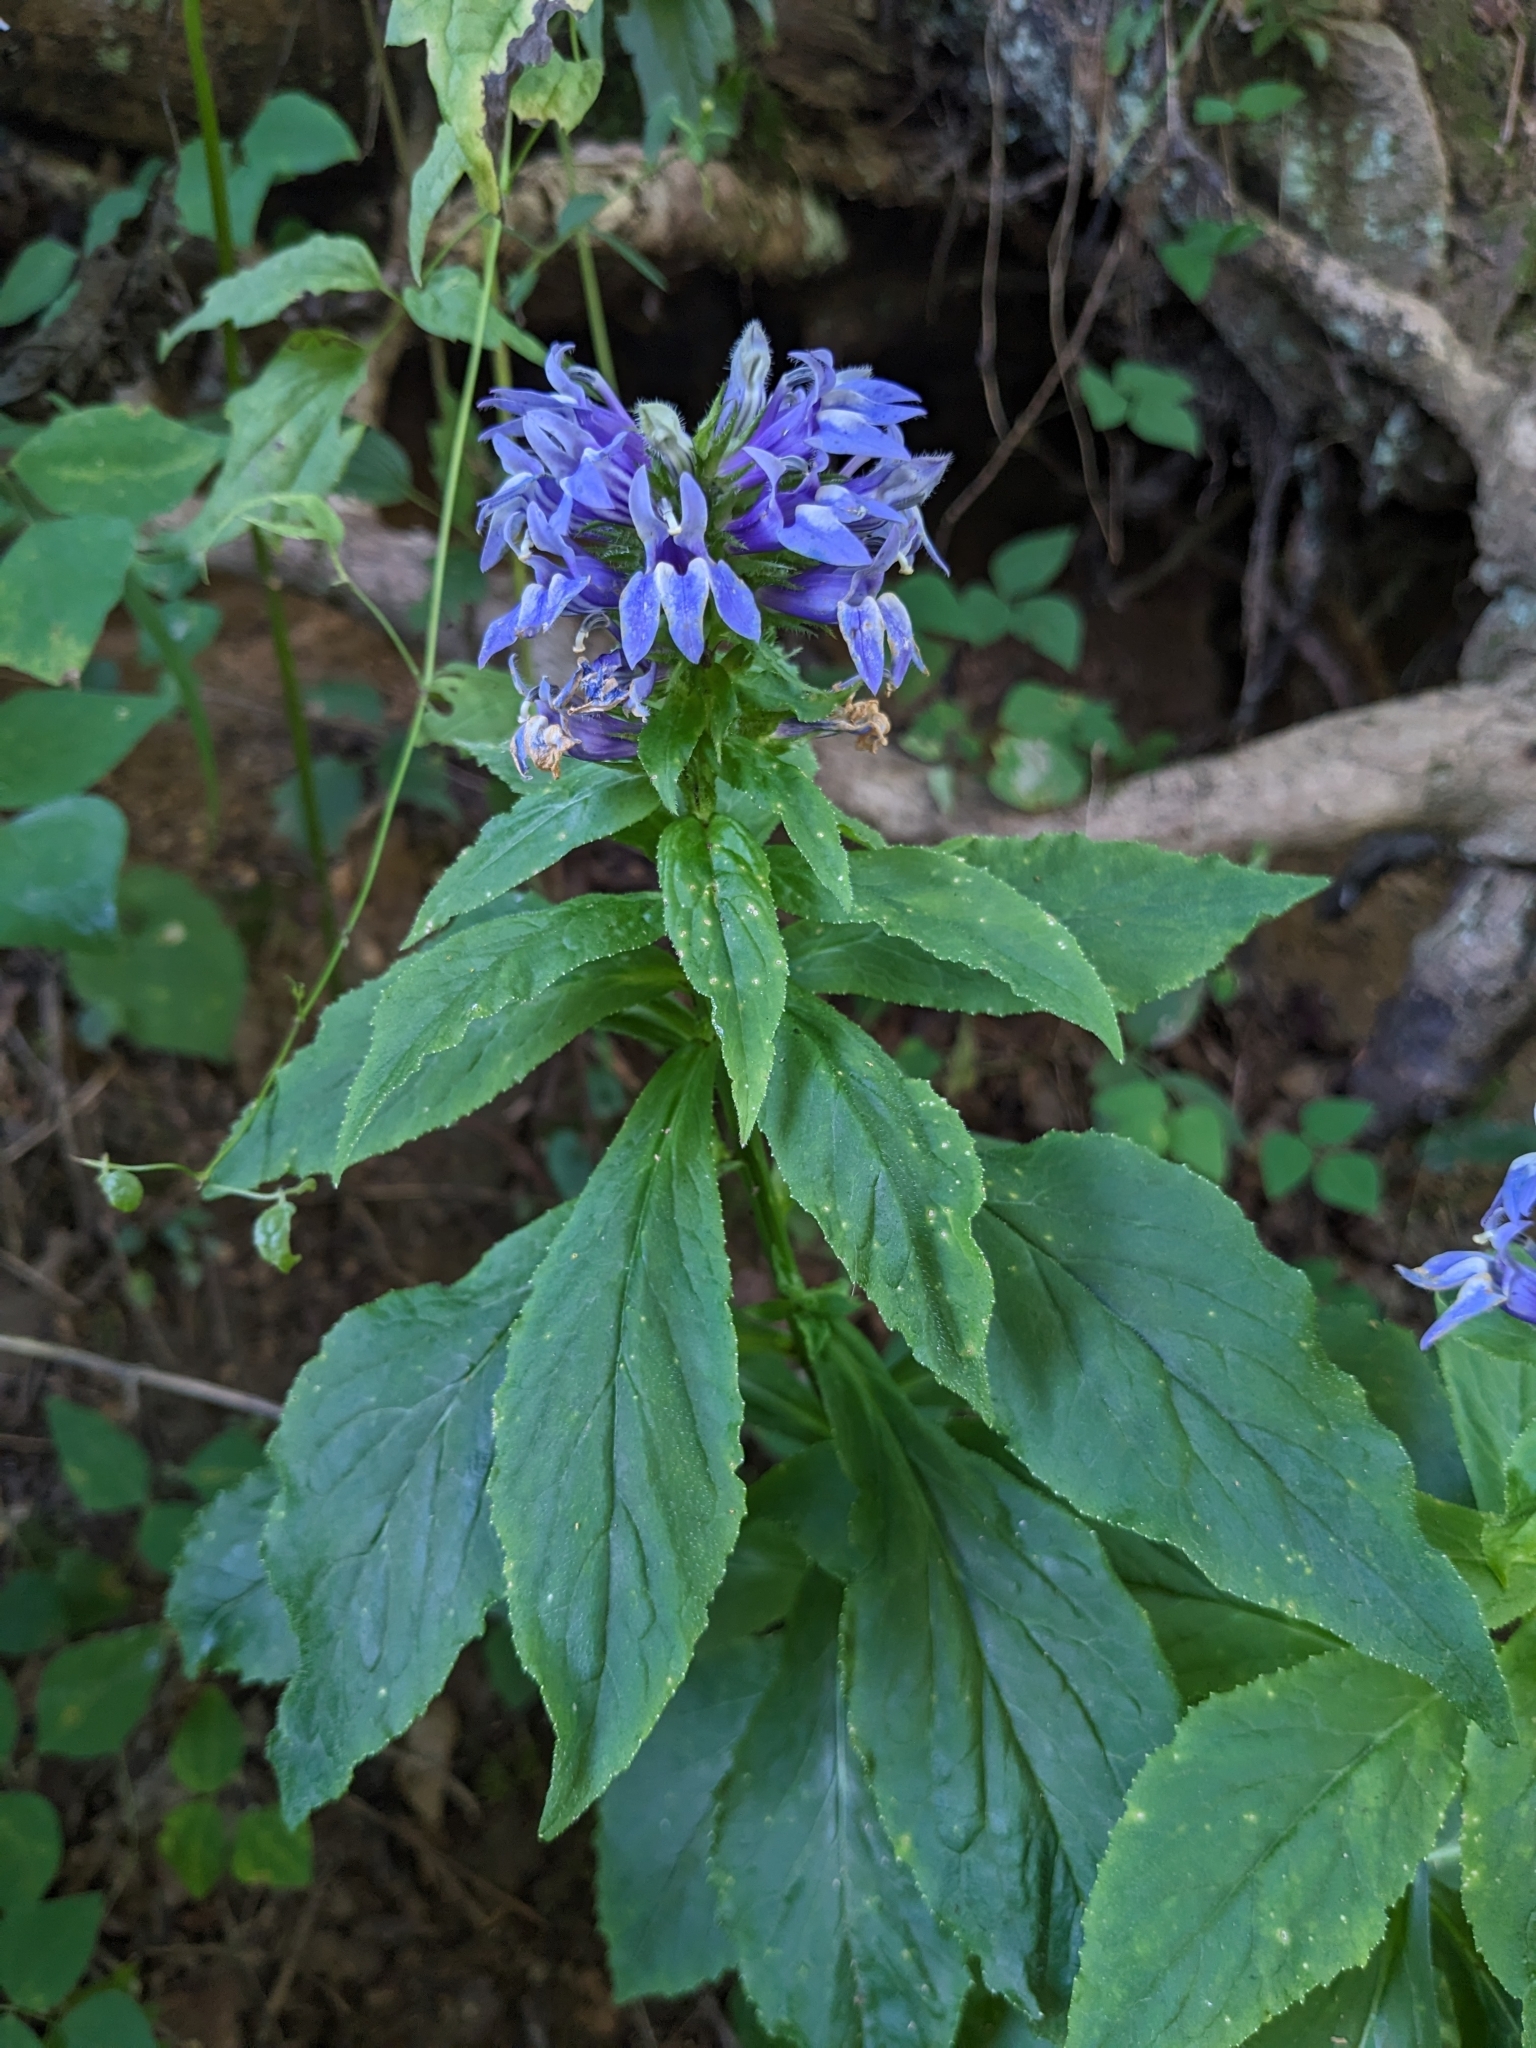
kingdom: Plantae
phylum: Tracheophyta
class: Magnoliopsida
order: Asterales
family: Campanulaceae
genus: Lobelia
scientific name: Lobelia siphilitica
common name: Great lobelia
